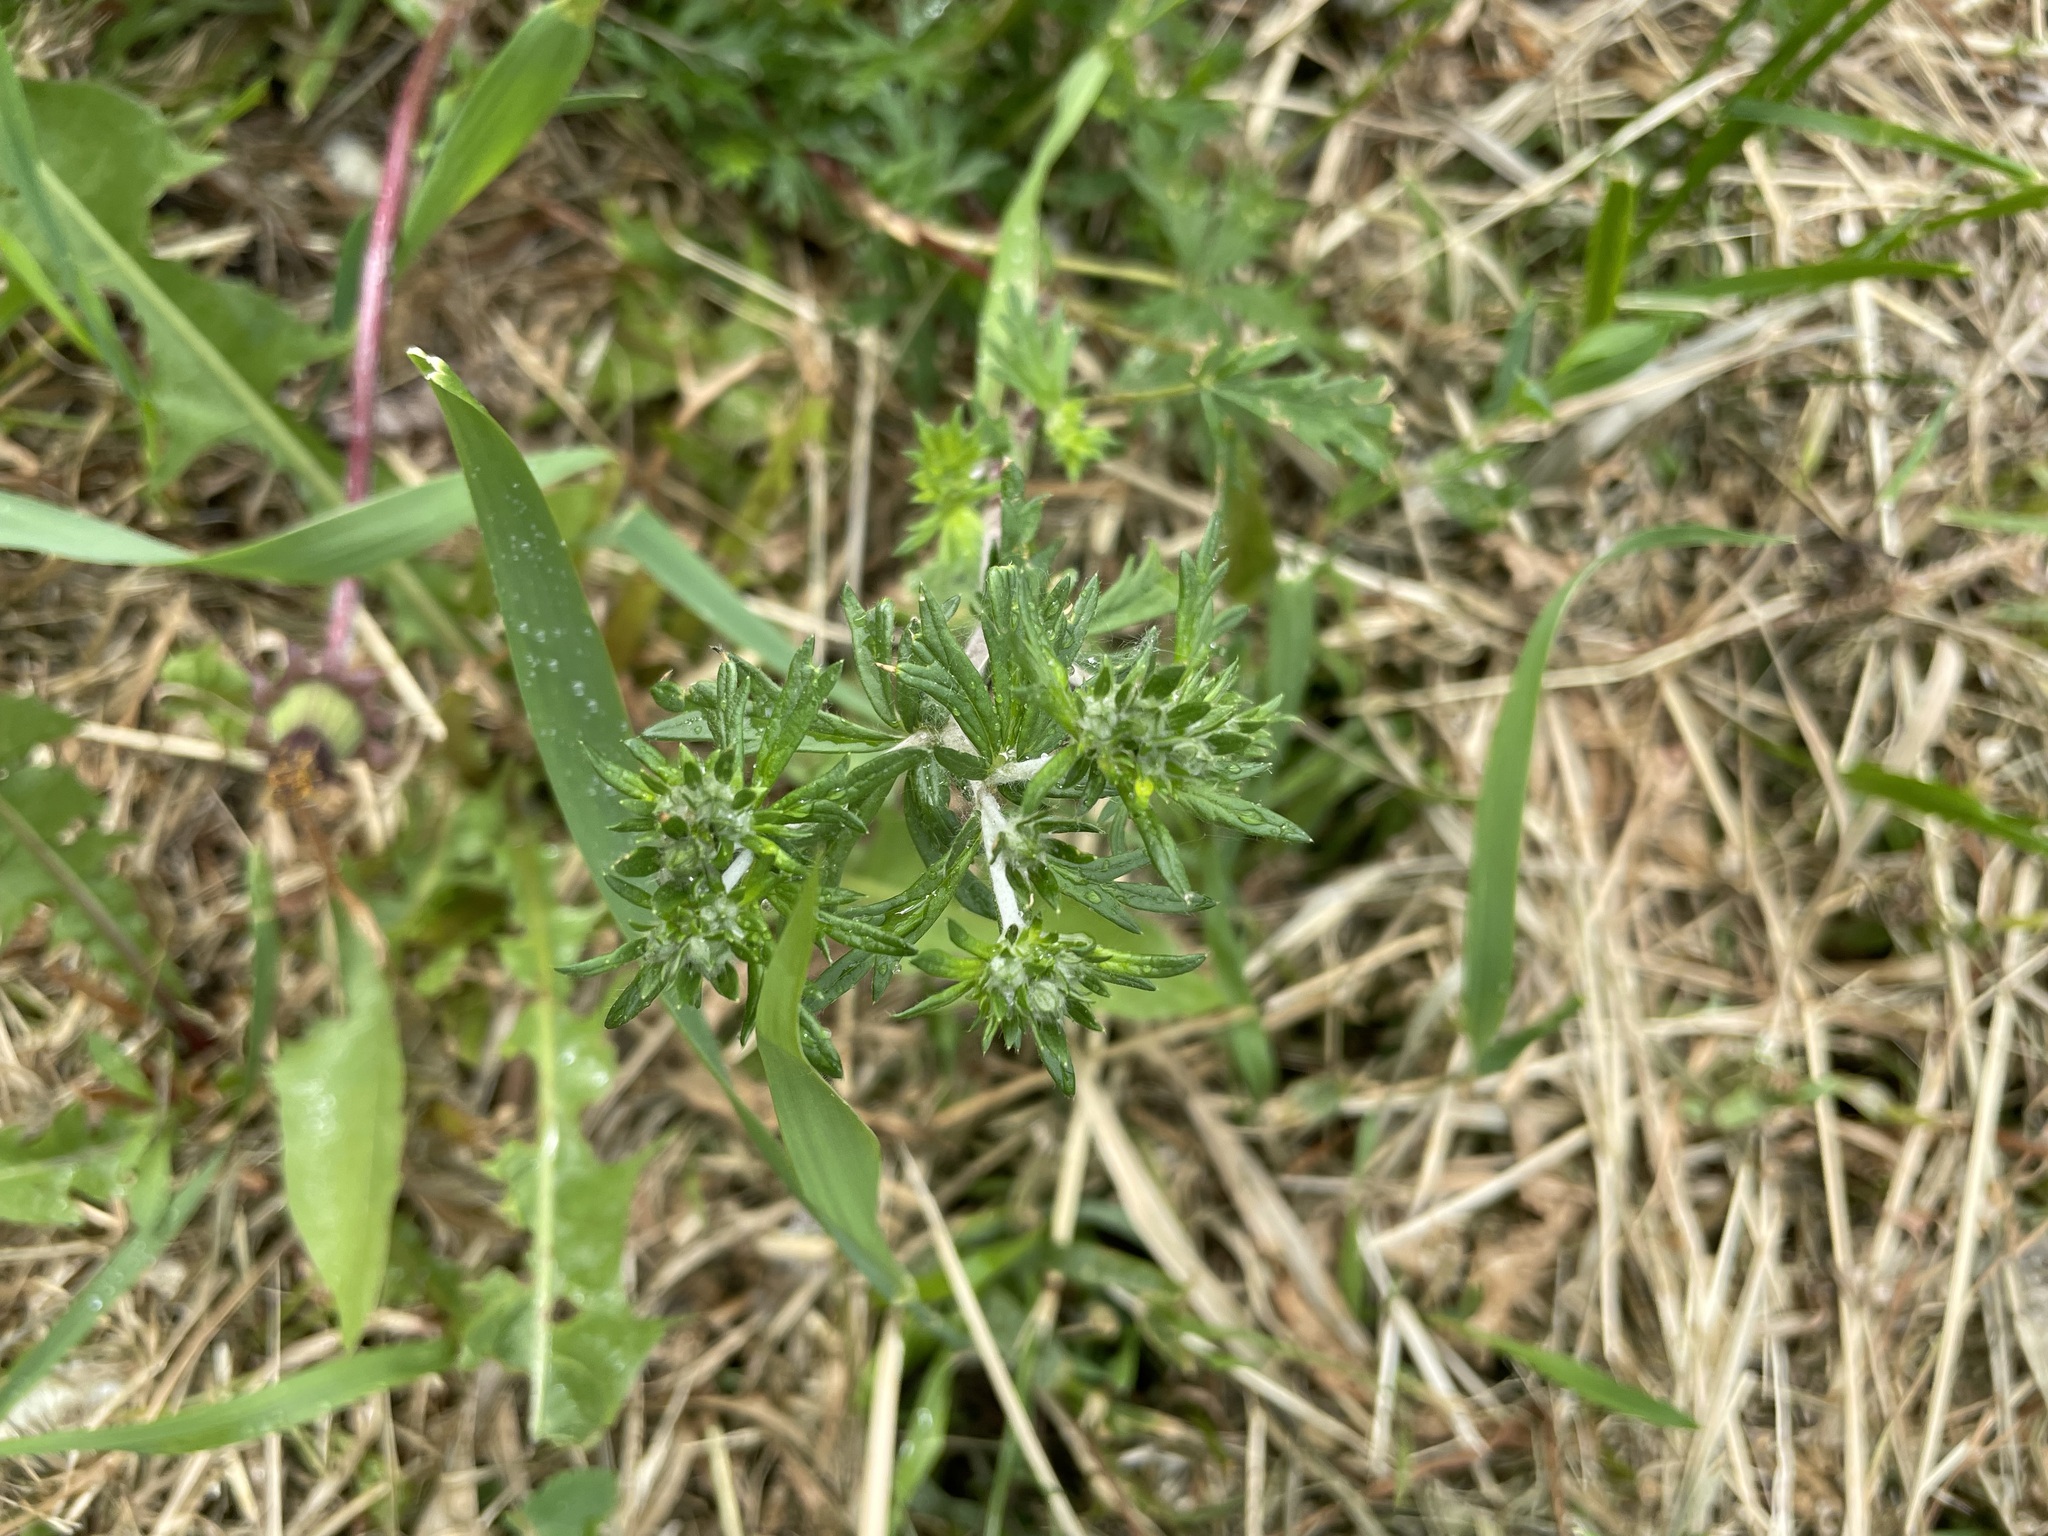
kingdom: Plantae
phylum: Tracheophyta
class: Magnoliopsida
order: Rosales
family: Rosaceae
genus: Potentilla
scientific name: Potentilla argentea
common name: Hoary cinquefoil
